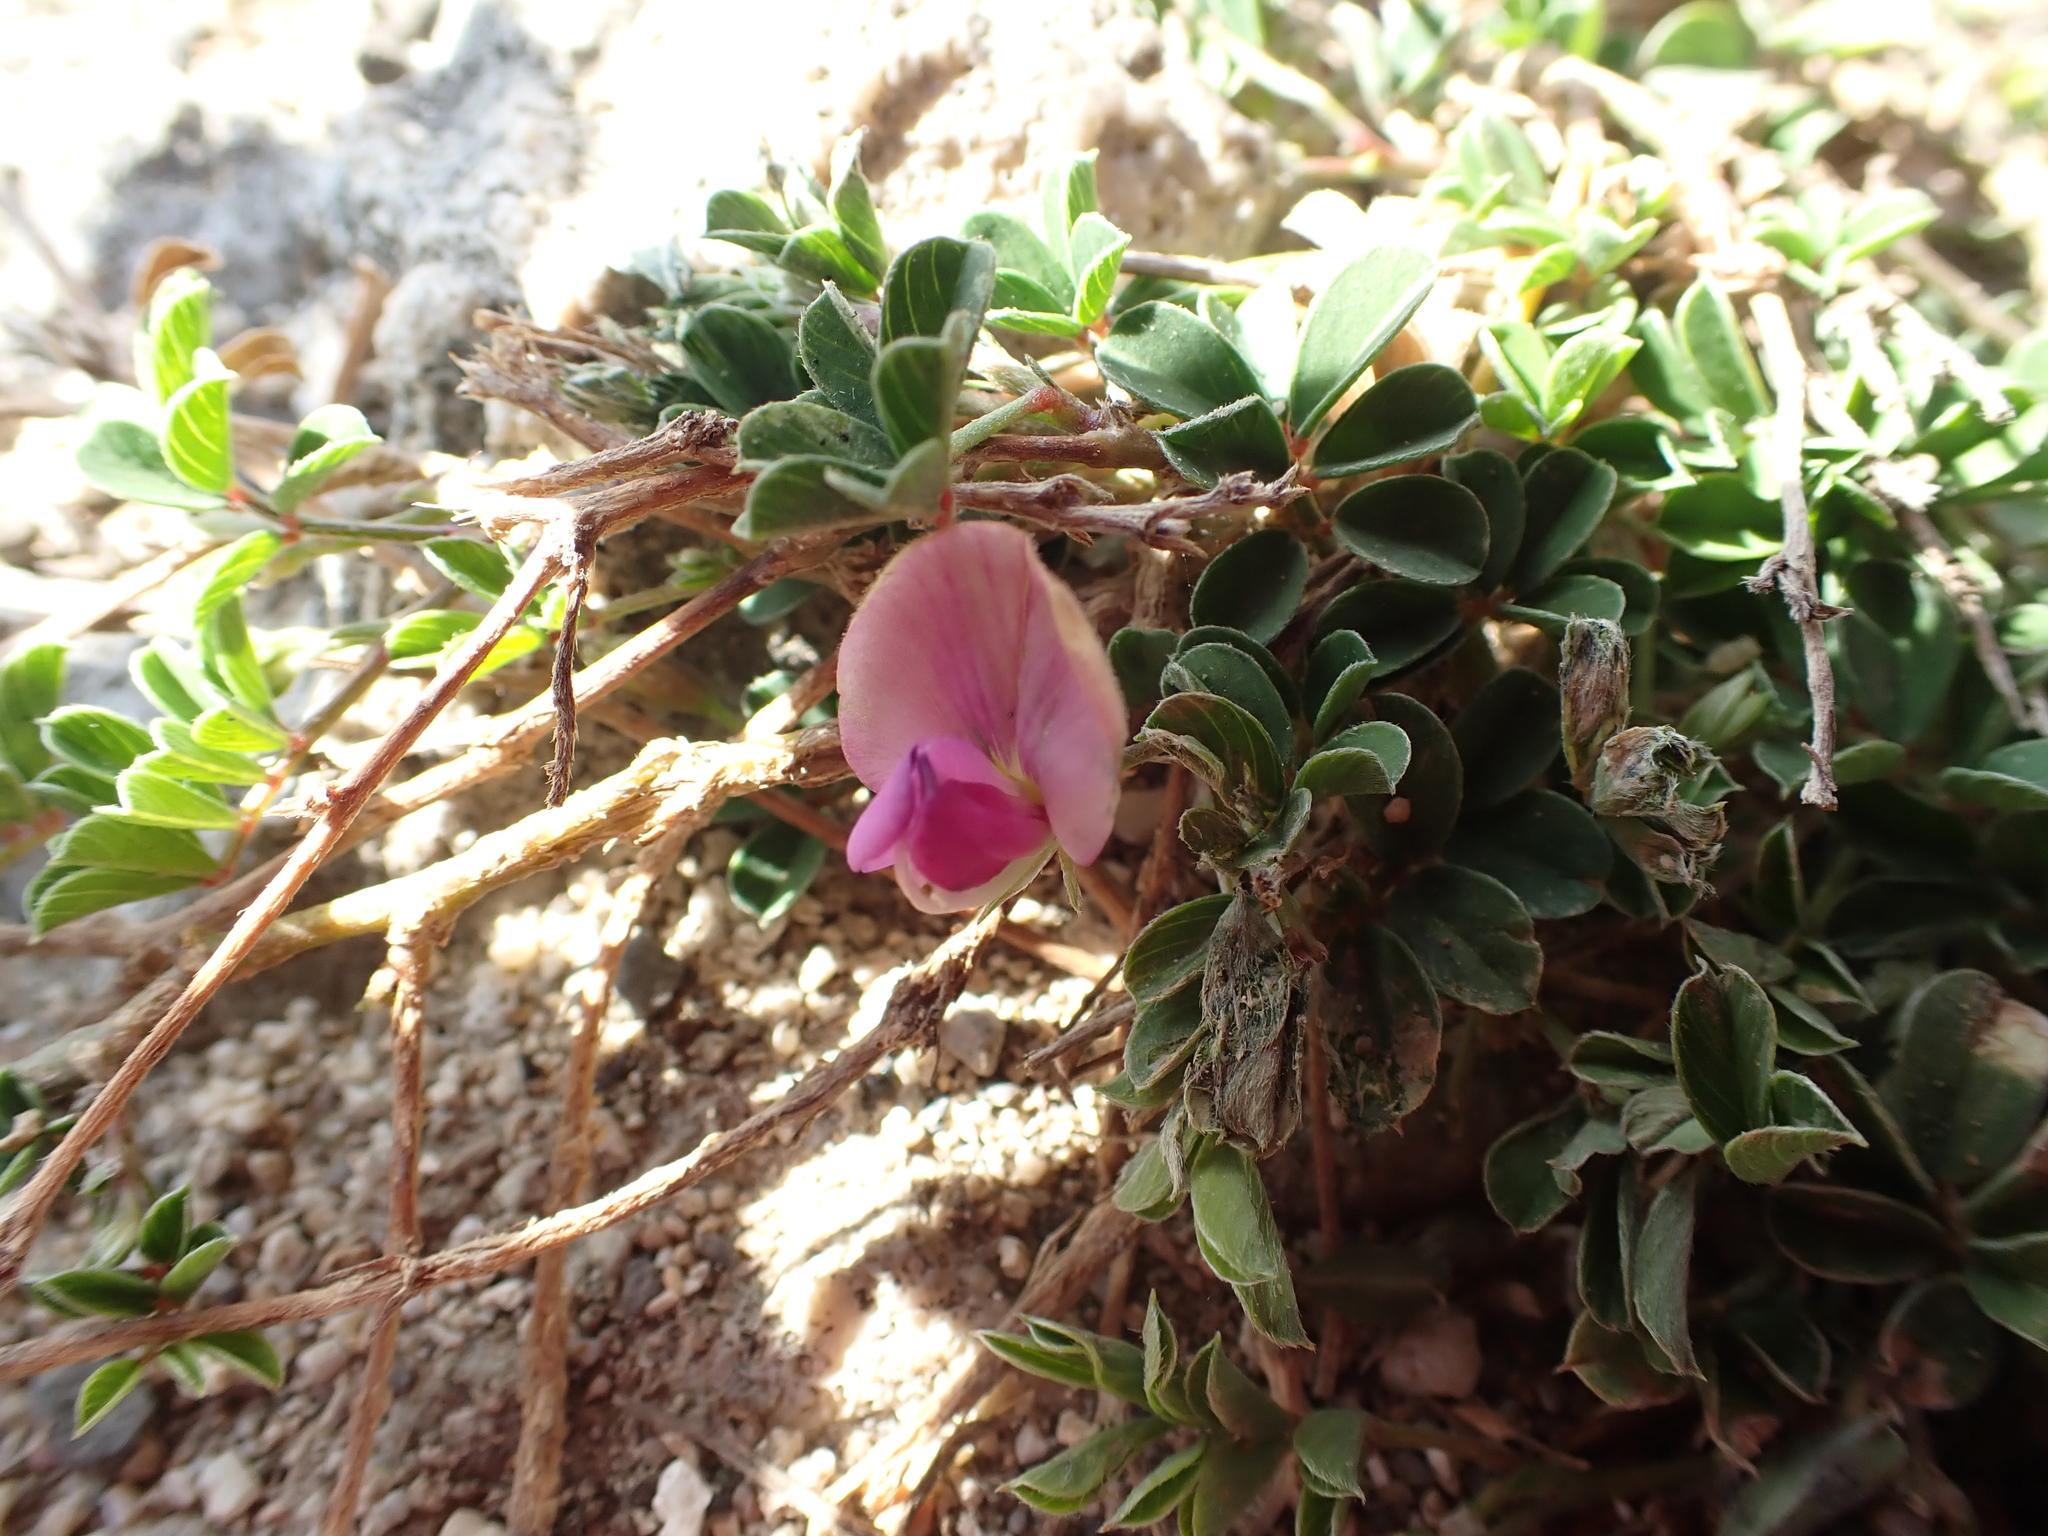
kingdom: Plantae
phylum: Tracheophyta
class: Magnoliopsida
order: Fabales
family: Fabaceae
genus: Tephrosia
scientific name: Tephrosia obovata
